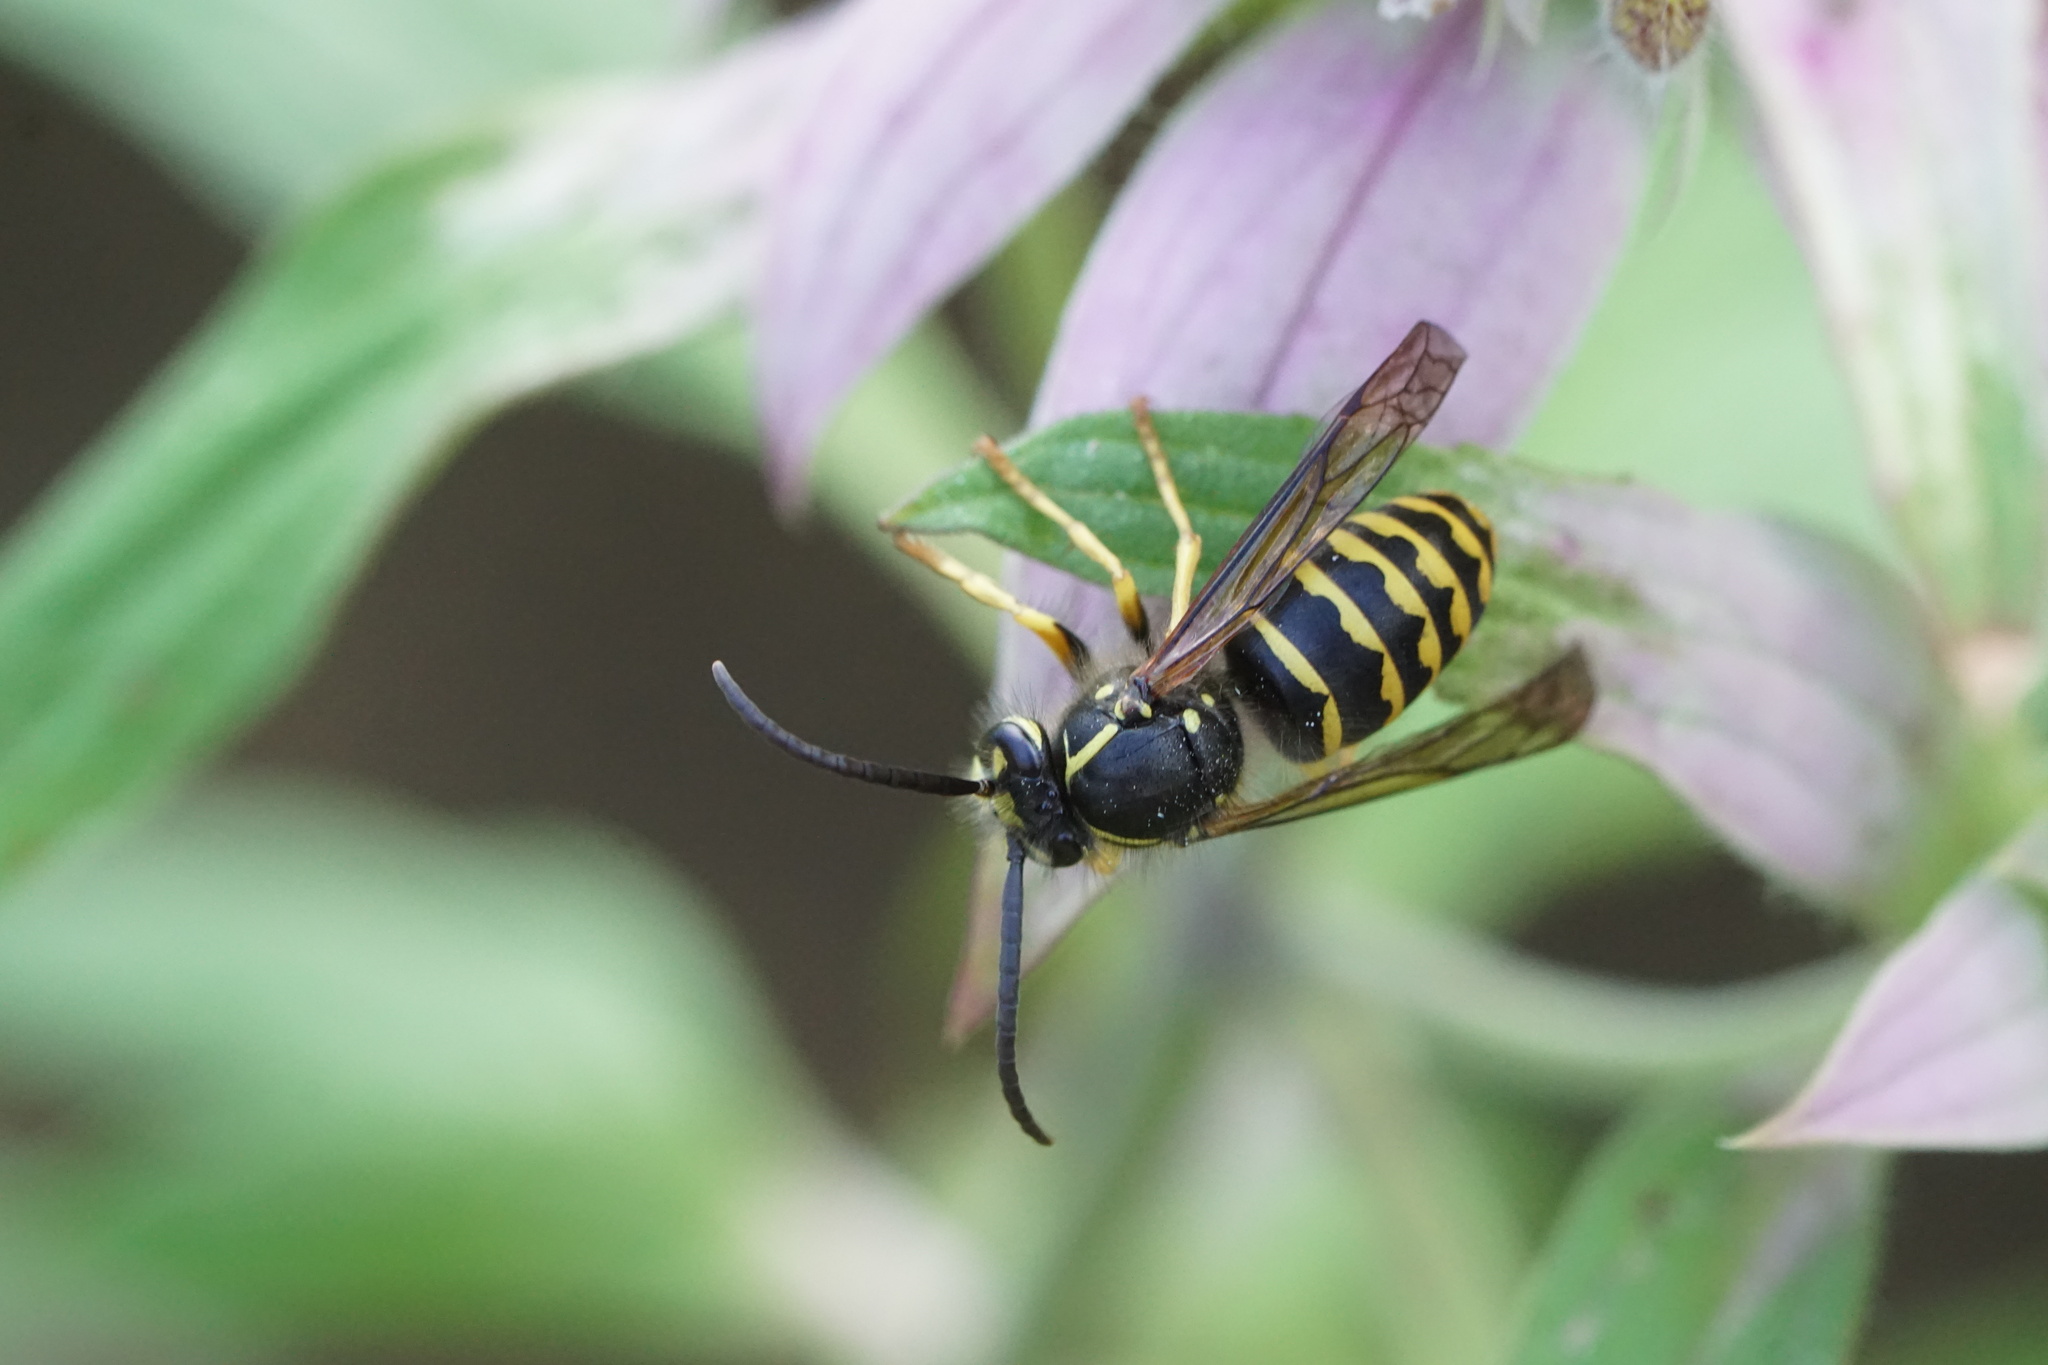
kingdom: Animalia
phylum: Arthropoda
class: Insecta
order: Hymenoptera
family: Vespidae
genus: Dolichovespula
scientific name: Dolichovespula arenaria
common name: Aerial yellowjacket
